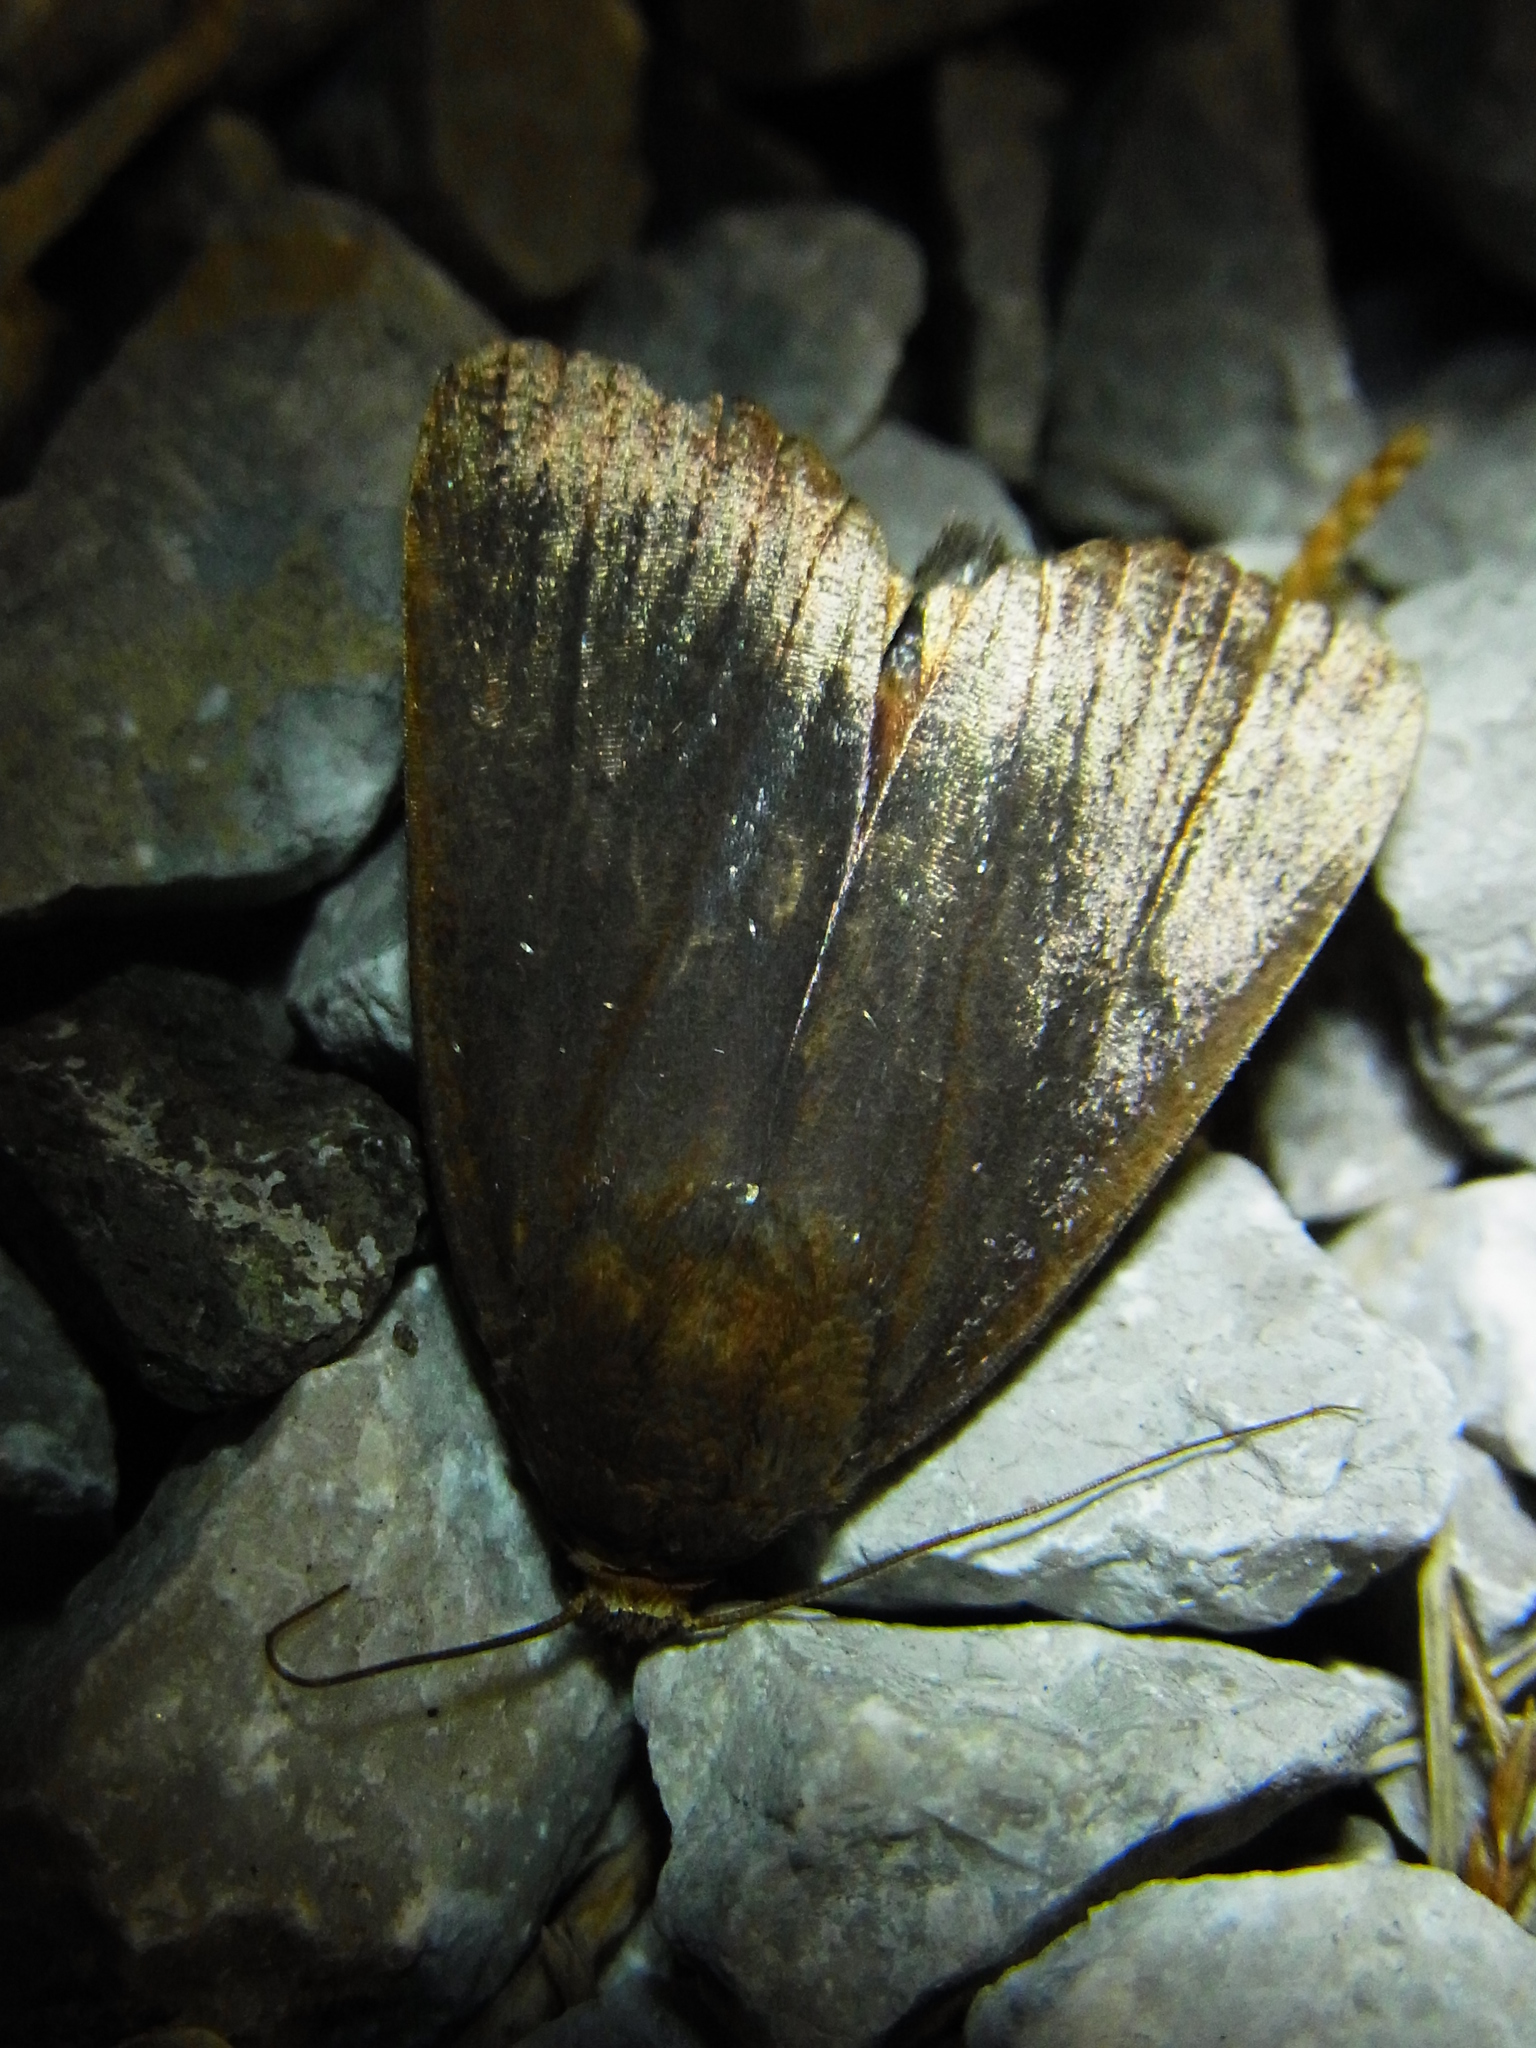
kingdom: Animalia
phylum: Arthropoda
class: Insecta
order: Lepidoptera
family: Noctuidae
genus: Amphipyra
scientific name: Amphipyra livida
